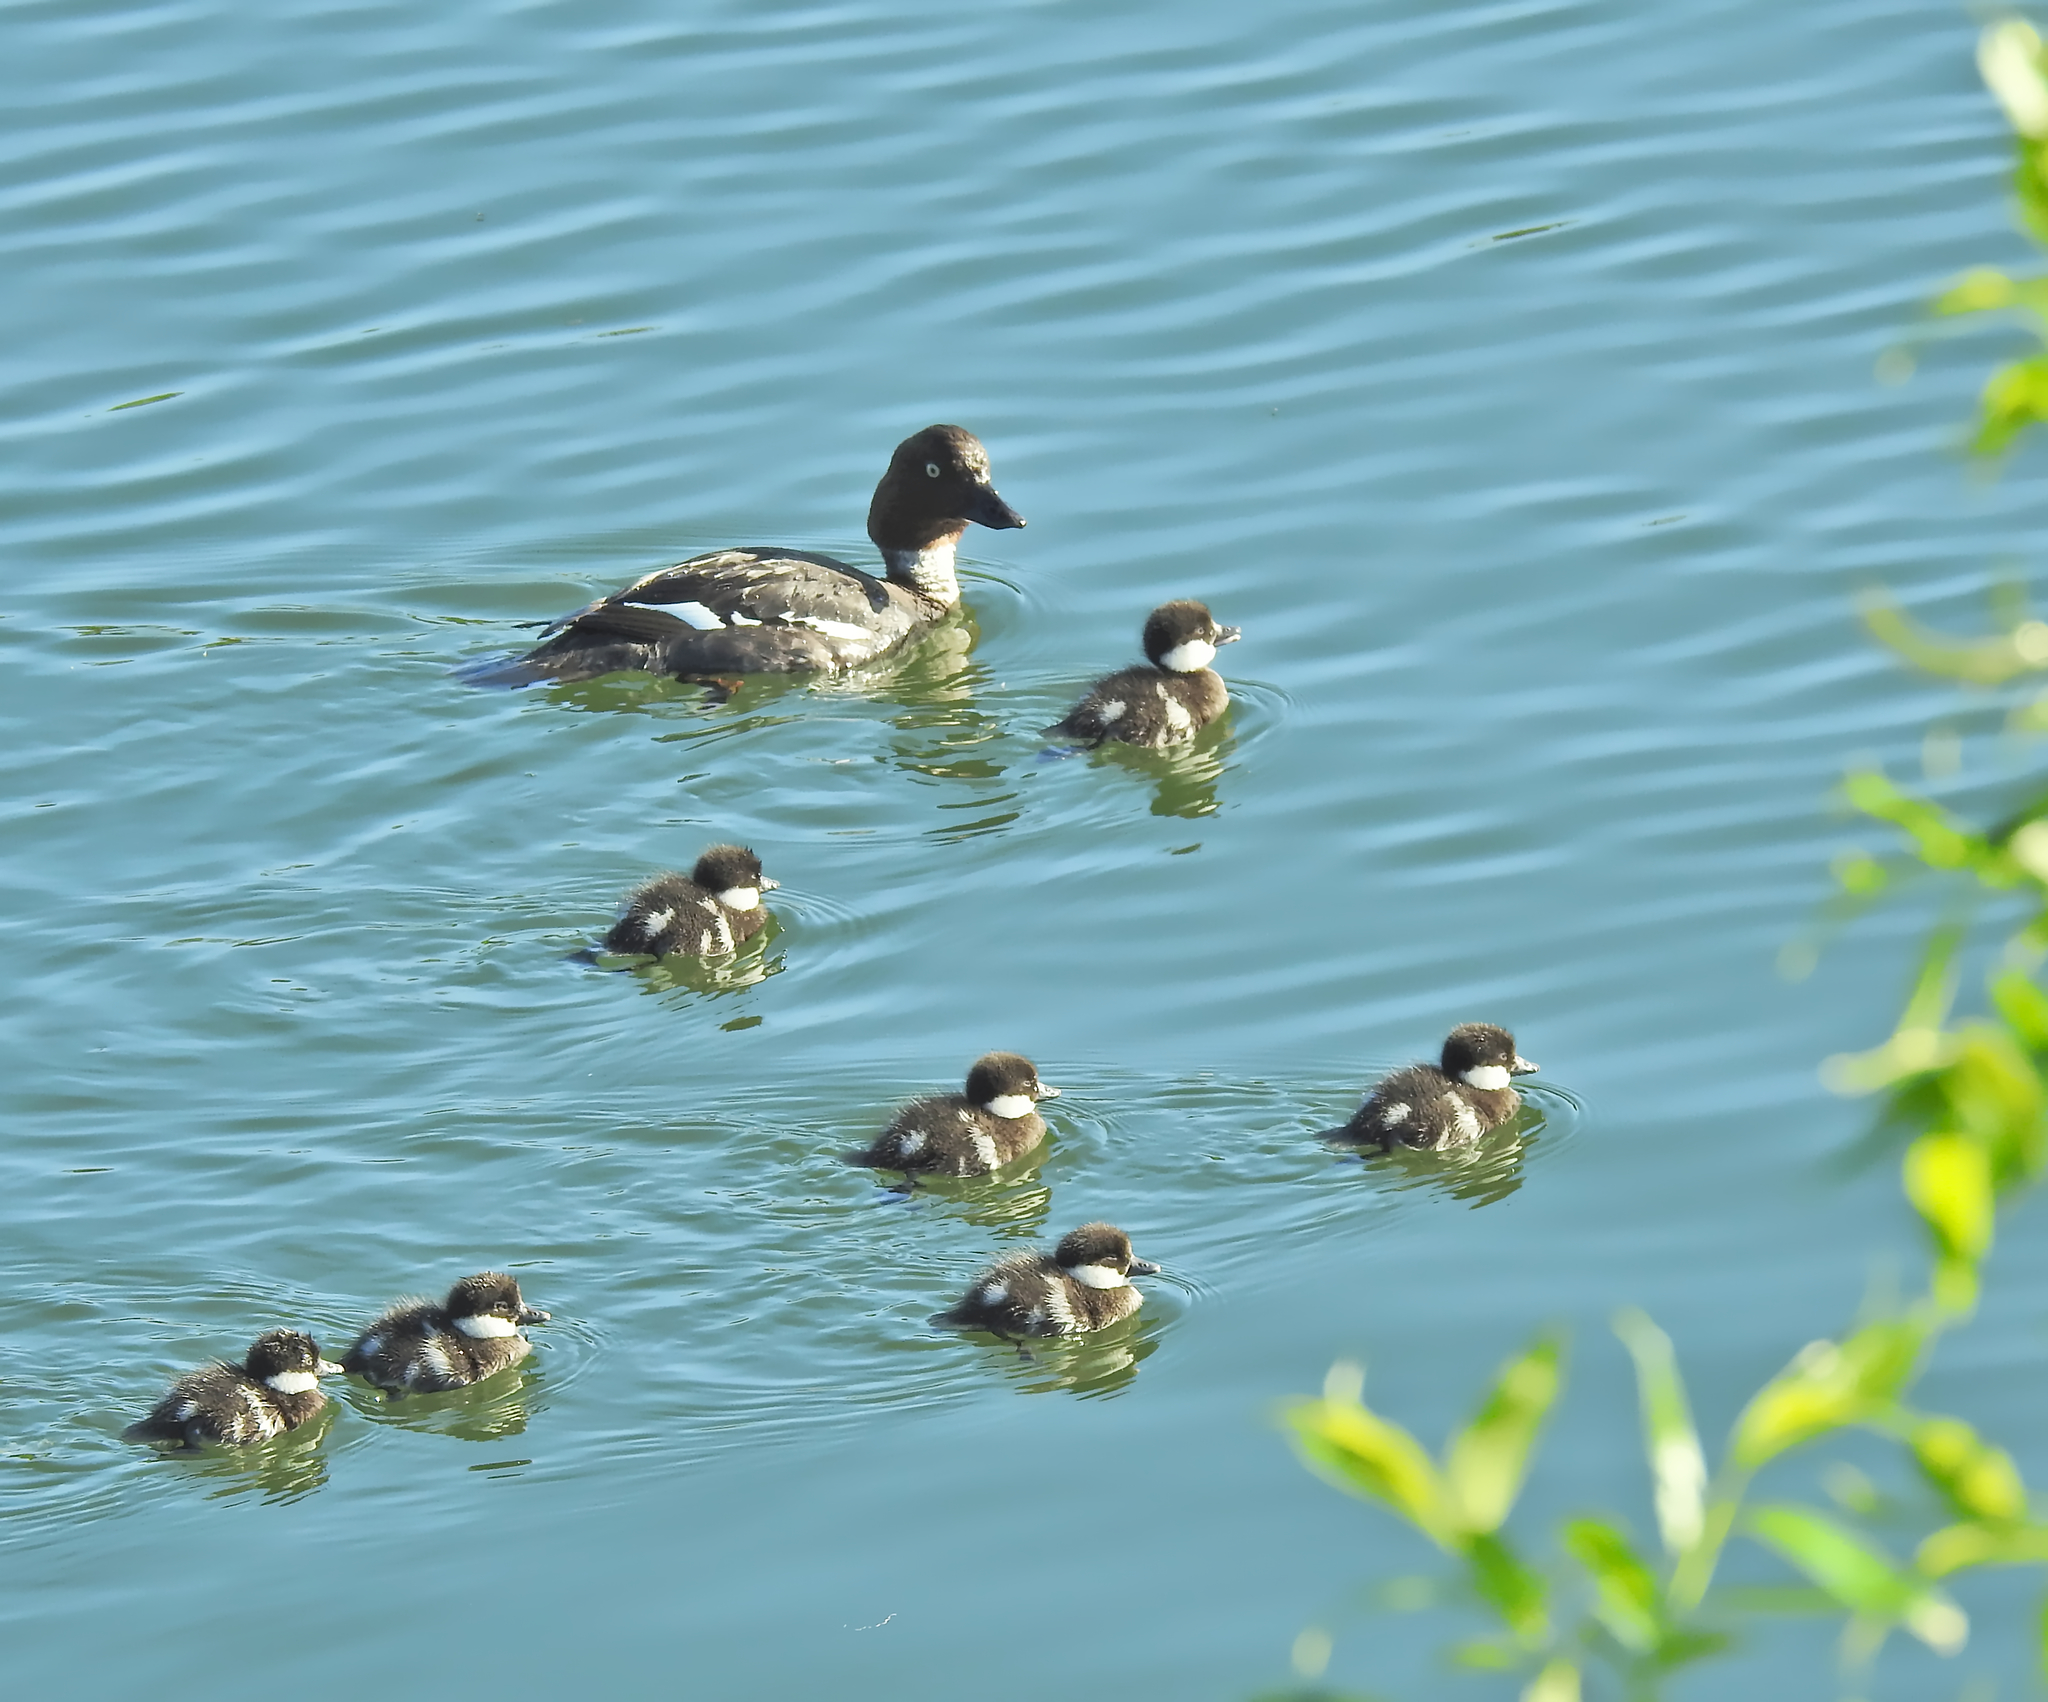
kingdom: Animalia
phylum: Chordata
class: Aves
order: Anseriformes
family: Anatidae
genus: Bucephala
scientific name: Bucephala clangula
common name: Common goldeneye
